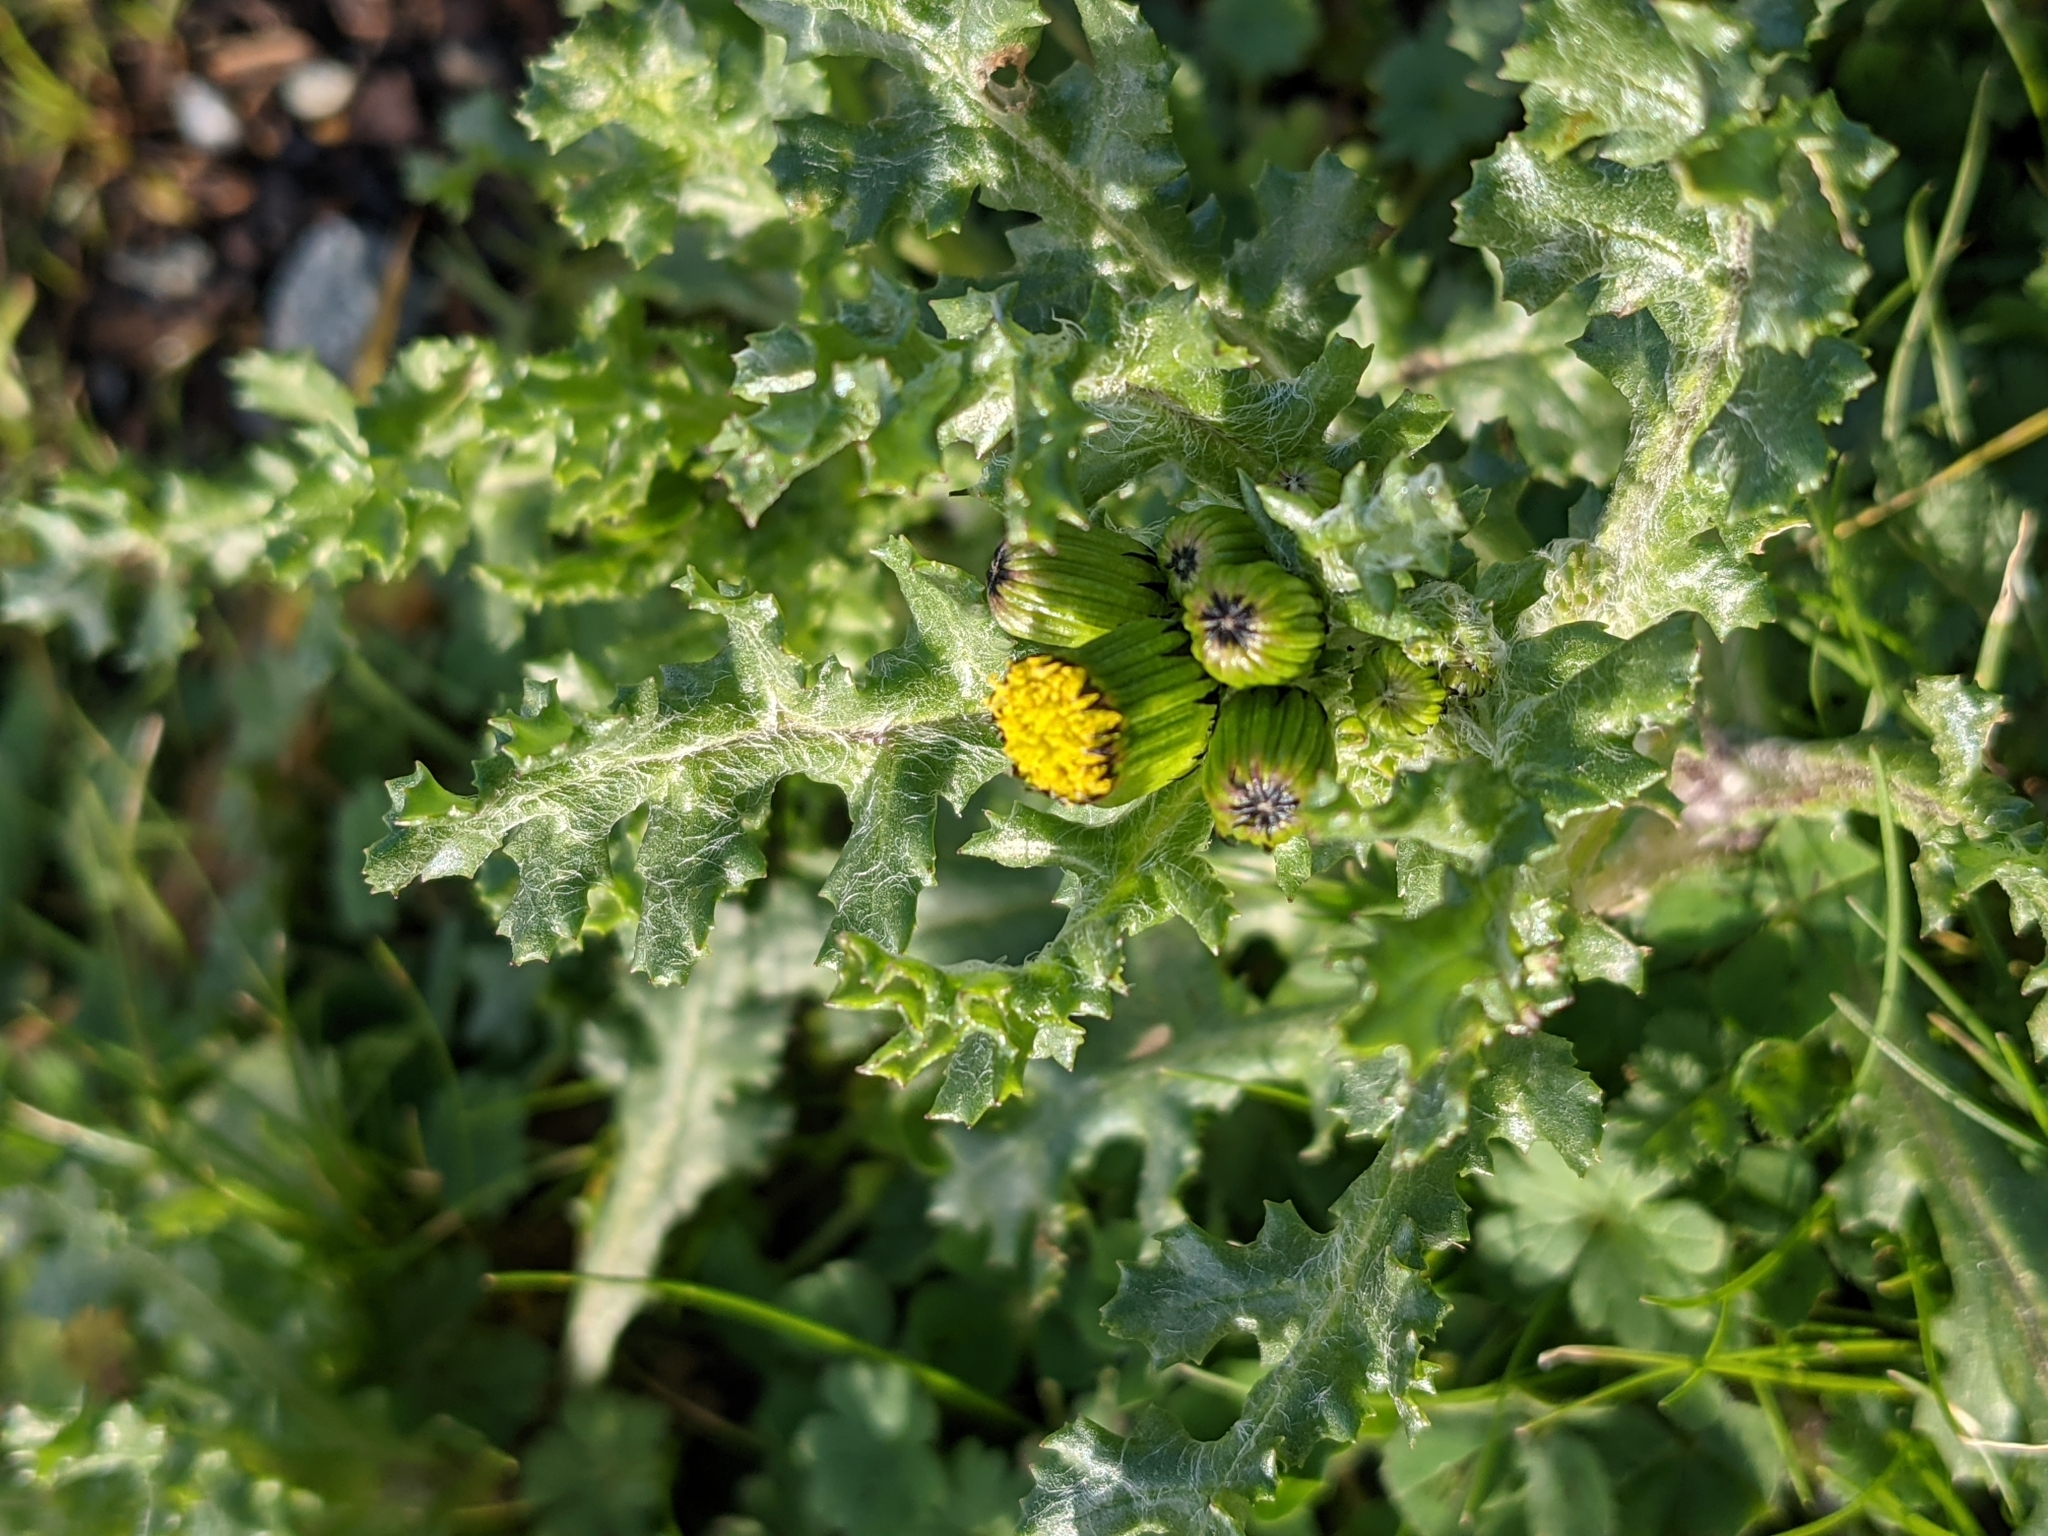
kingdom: Plantae
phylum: Tracheophyta
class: Magnoliopsida
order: Asterales
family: Asteraceae
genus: Senecio
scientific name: Senecio vulgaris
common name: Old-man-in-the-spring
